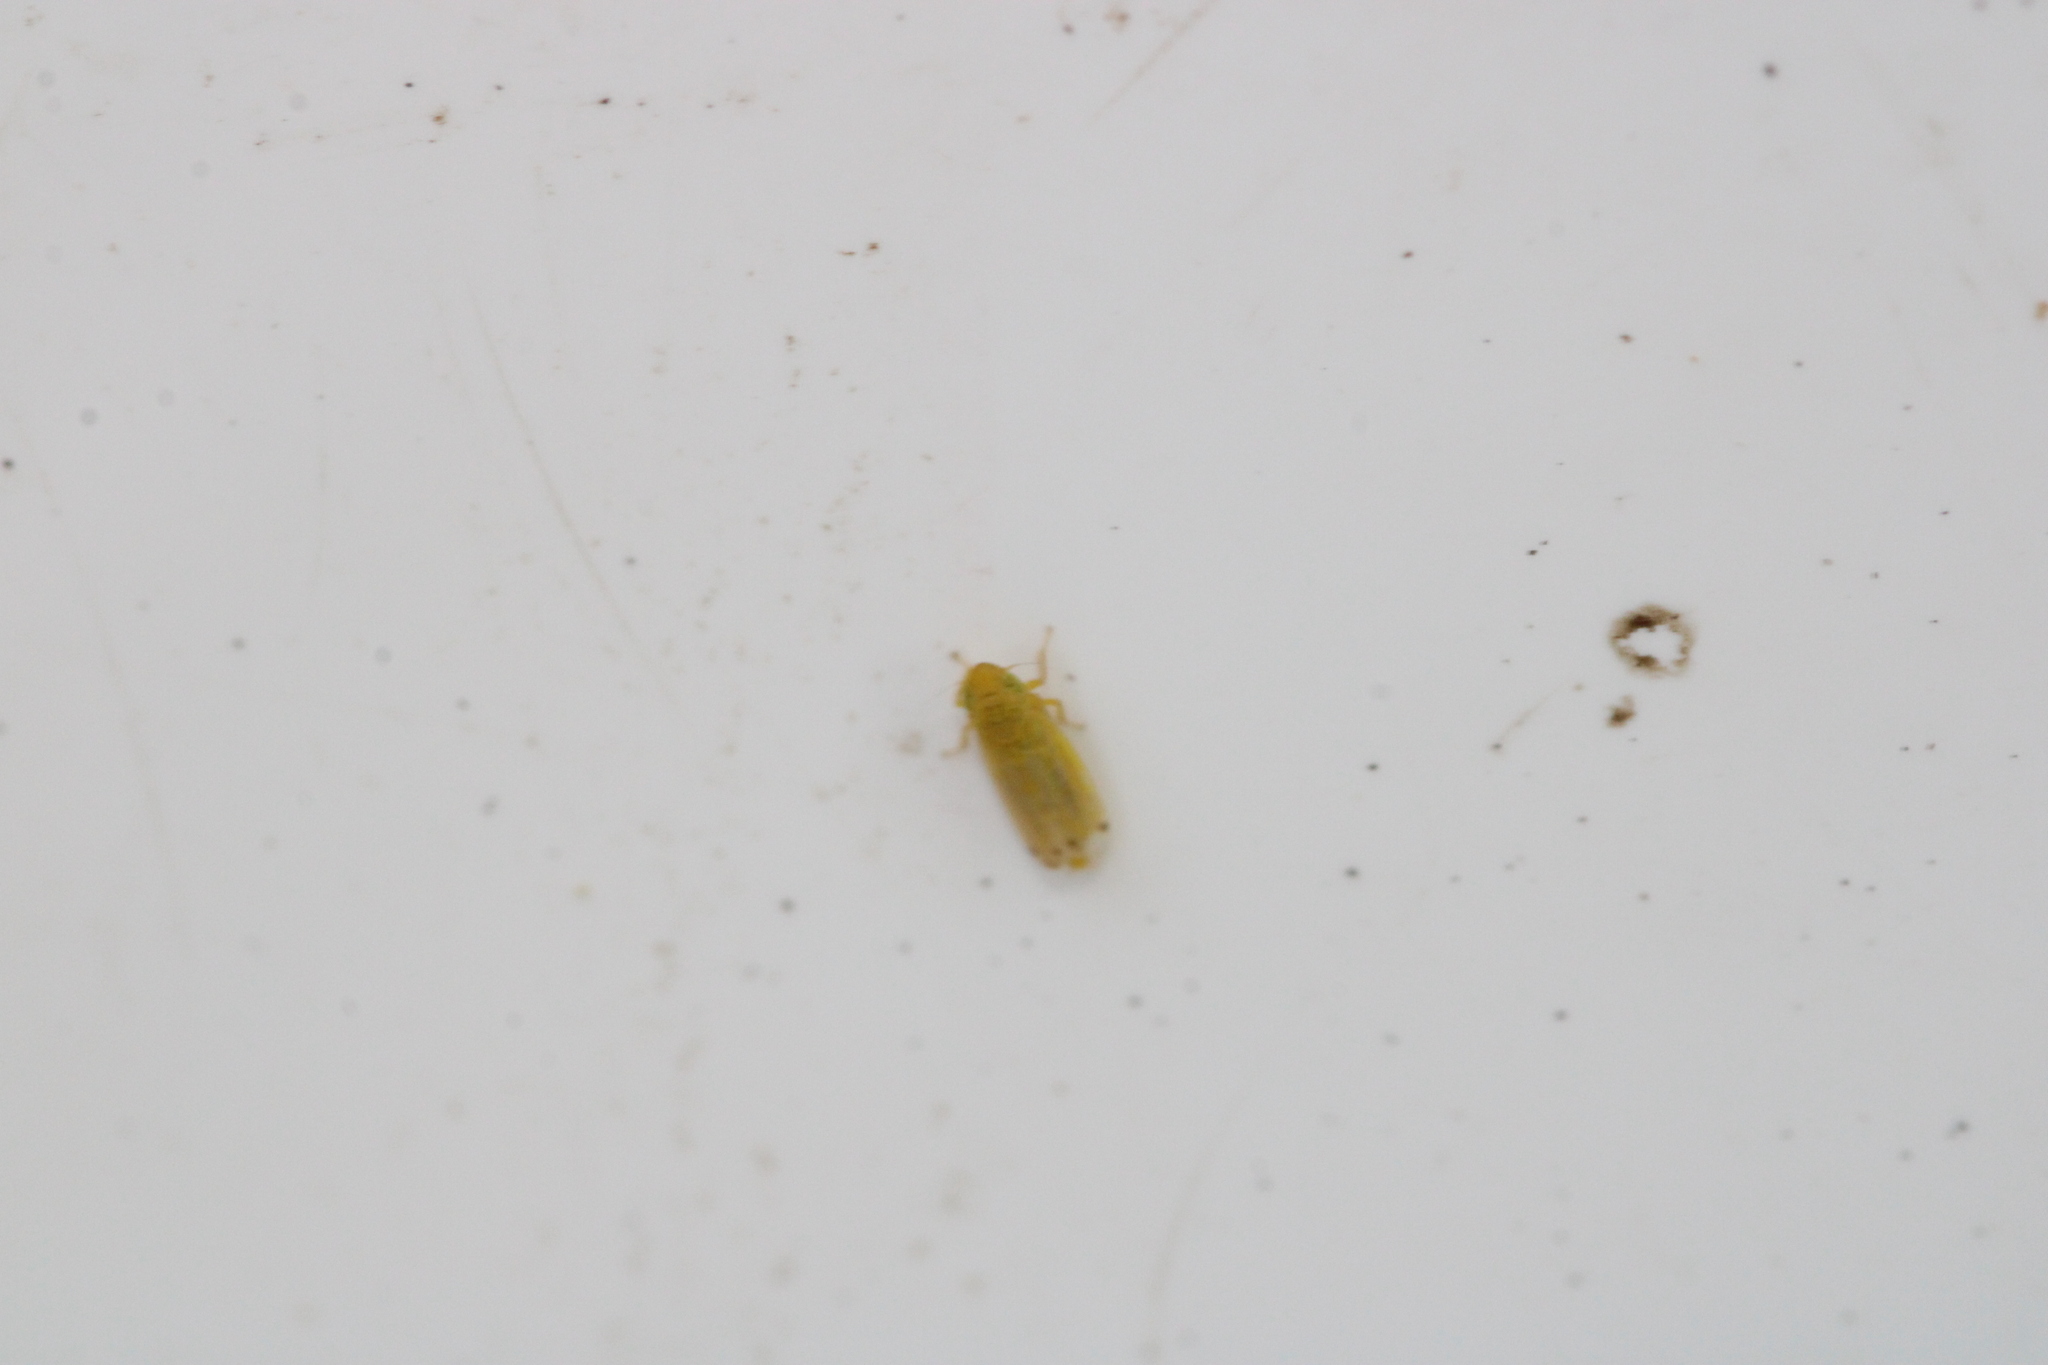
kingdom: Animalia
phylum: Arthropoda
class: Insecta
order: Hemiptera
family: Cicadellidae
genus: Cosmotettix
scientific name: Cosmotettix aurantiacus
